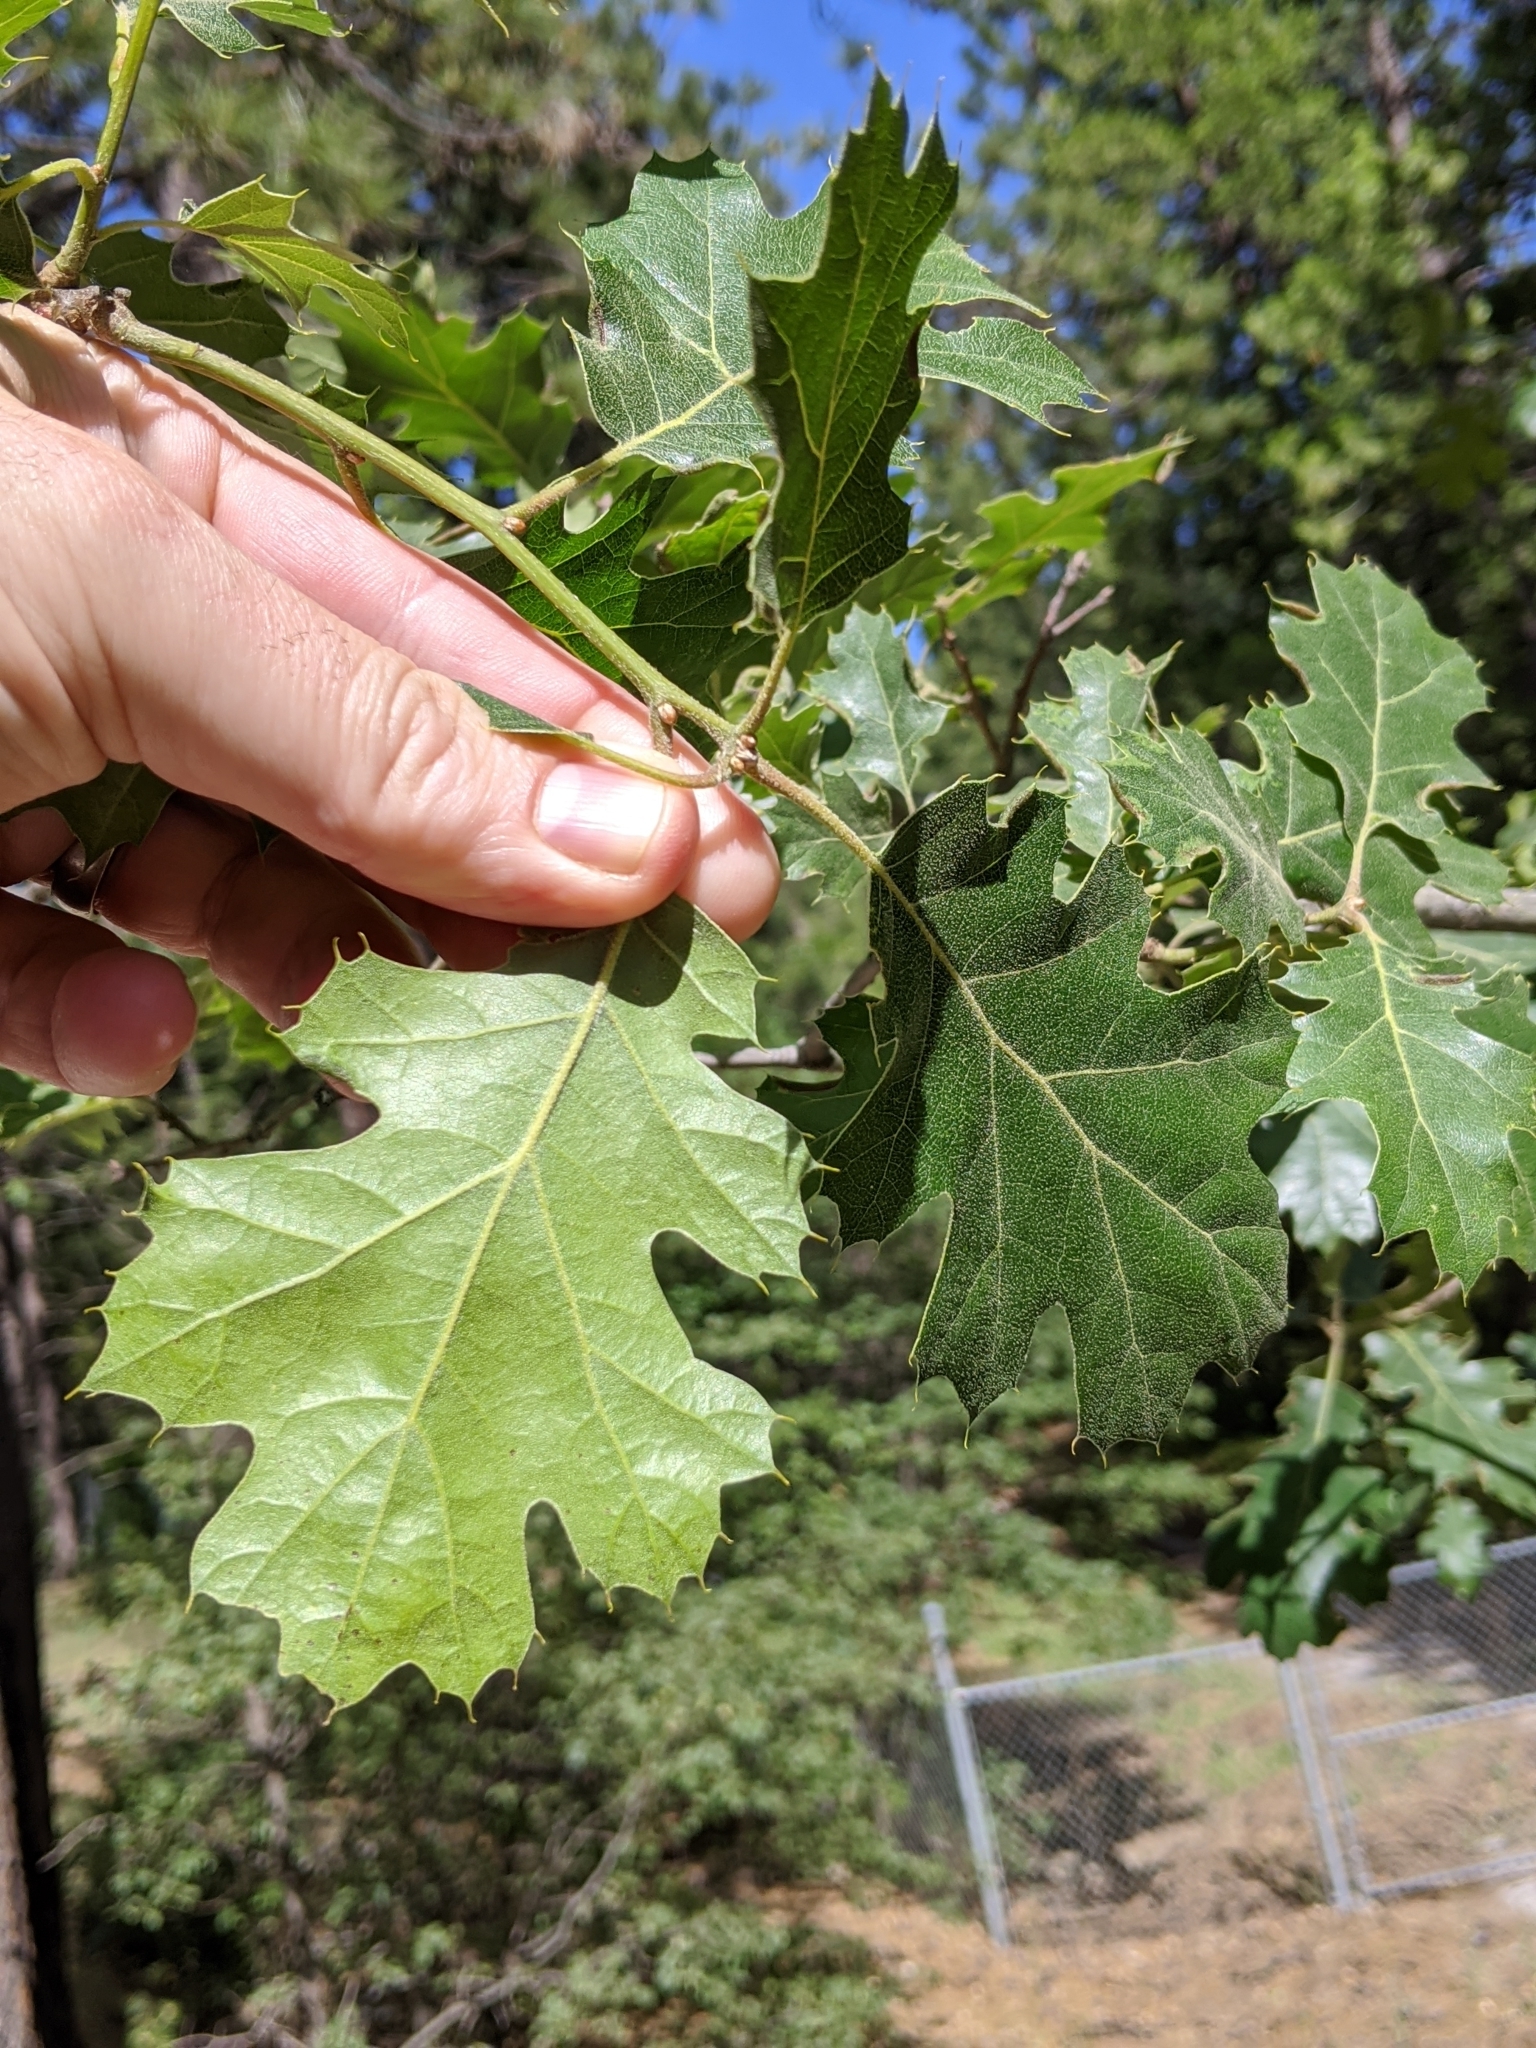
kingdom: Plantae
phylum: Tracheophyta
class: Magnoliopsida
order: Fagales
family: Fagaceae
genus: Quercus
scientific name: Quercus kelloggii
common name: California black oak
